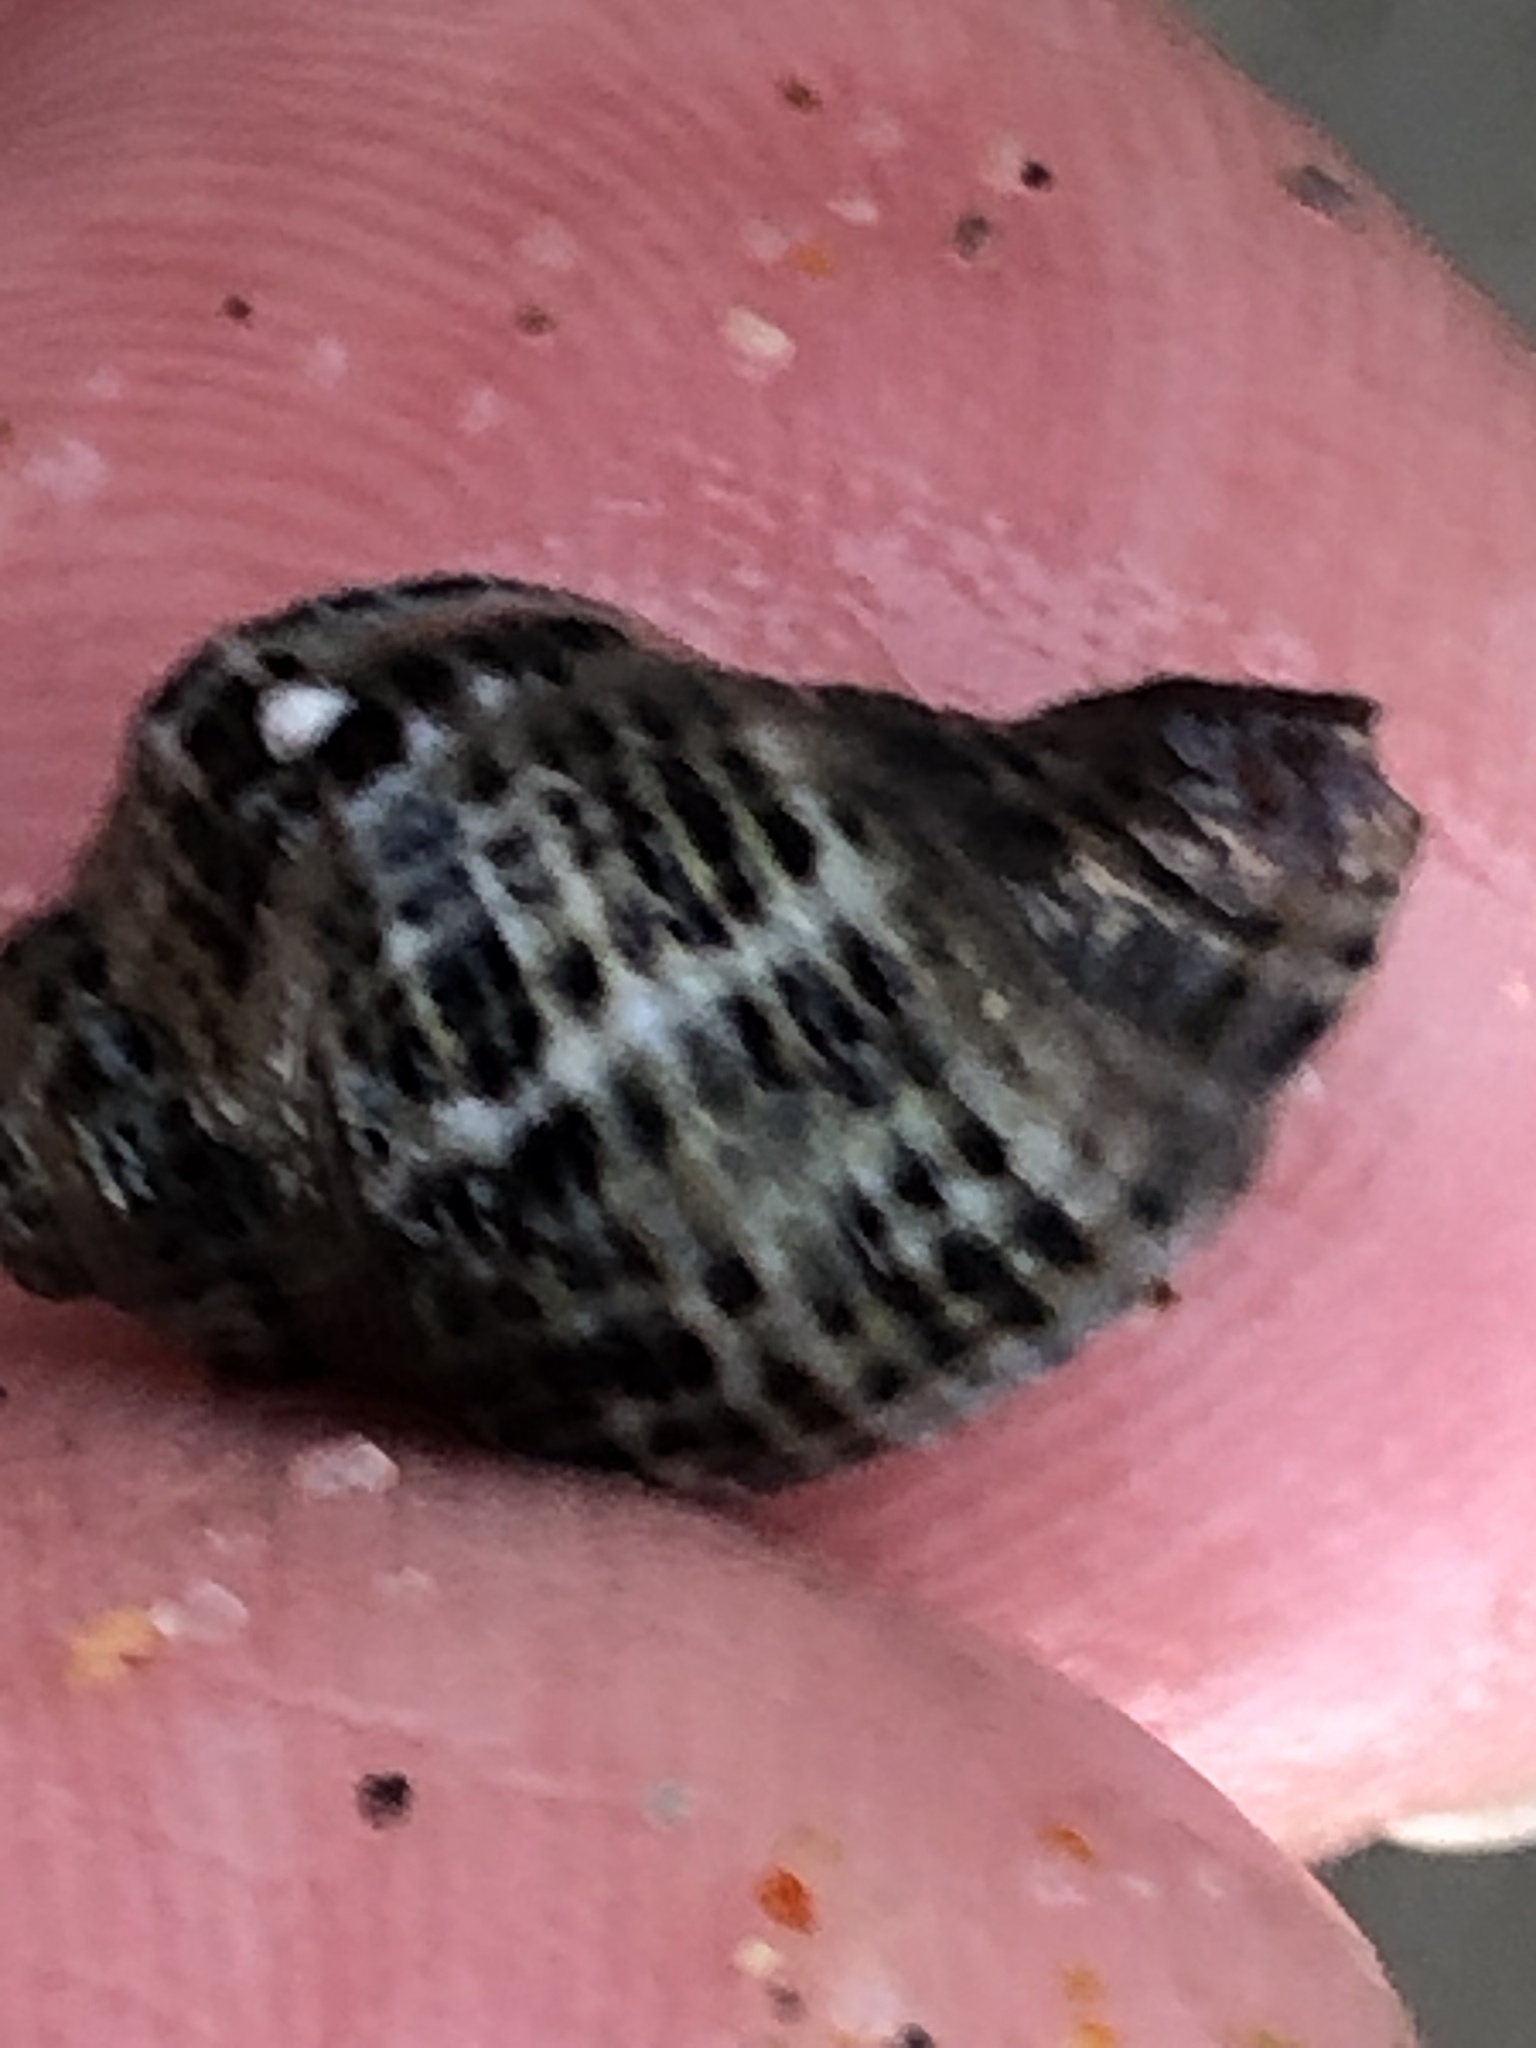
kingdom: Animalia
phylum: Mollusca
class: Gastropoda
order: Neogastropoda
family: Muricidae
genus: Acanthinucella
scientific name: Acanthinucella spirata
